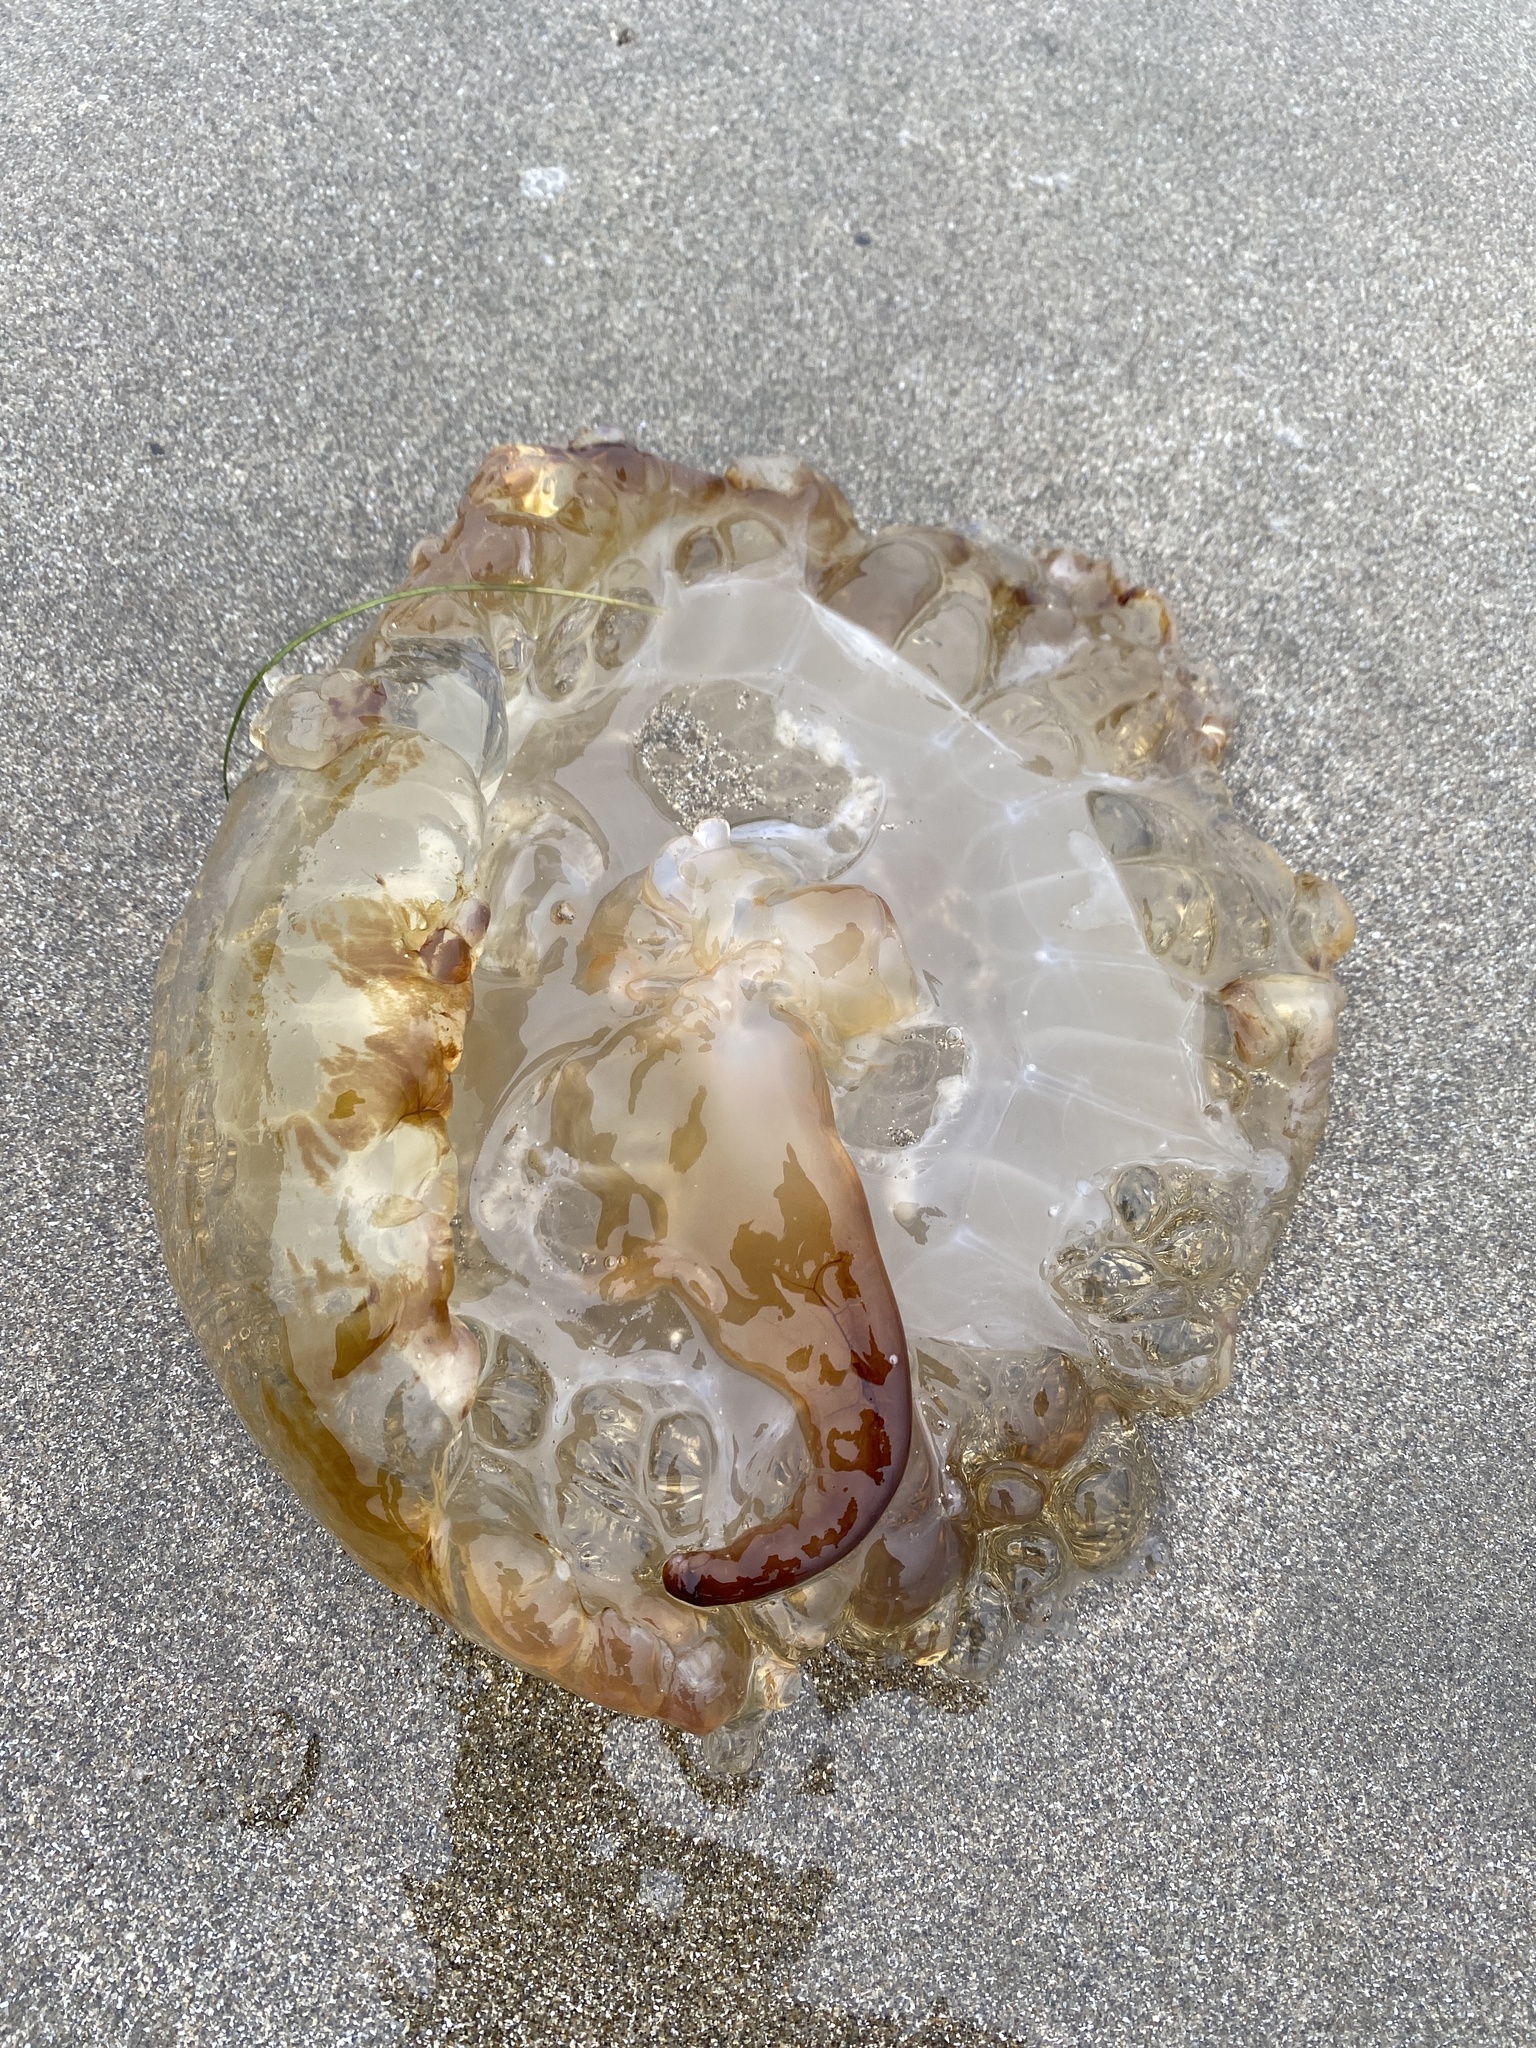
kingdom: Animalia
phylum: Cnidaria
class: Scyphozoa
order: Semaeostomeae
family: Pelagiidae
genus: Chrysaora
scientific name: Chrysaora fuscescens
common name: Sea nettle
